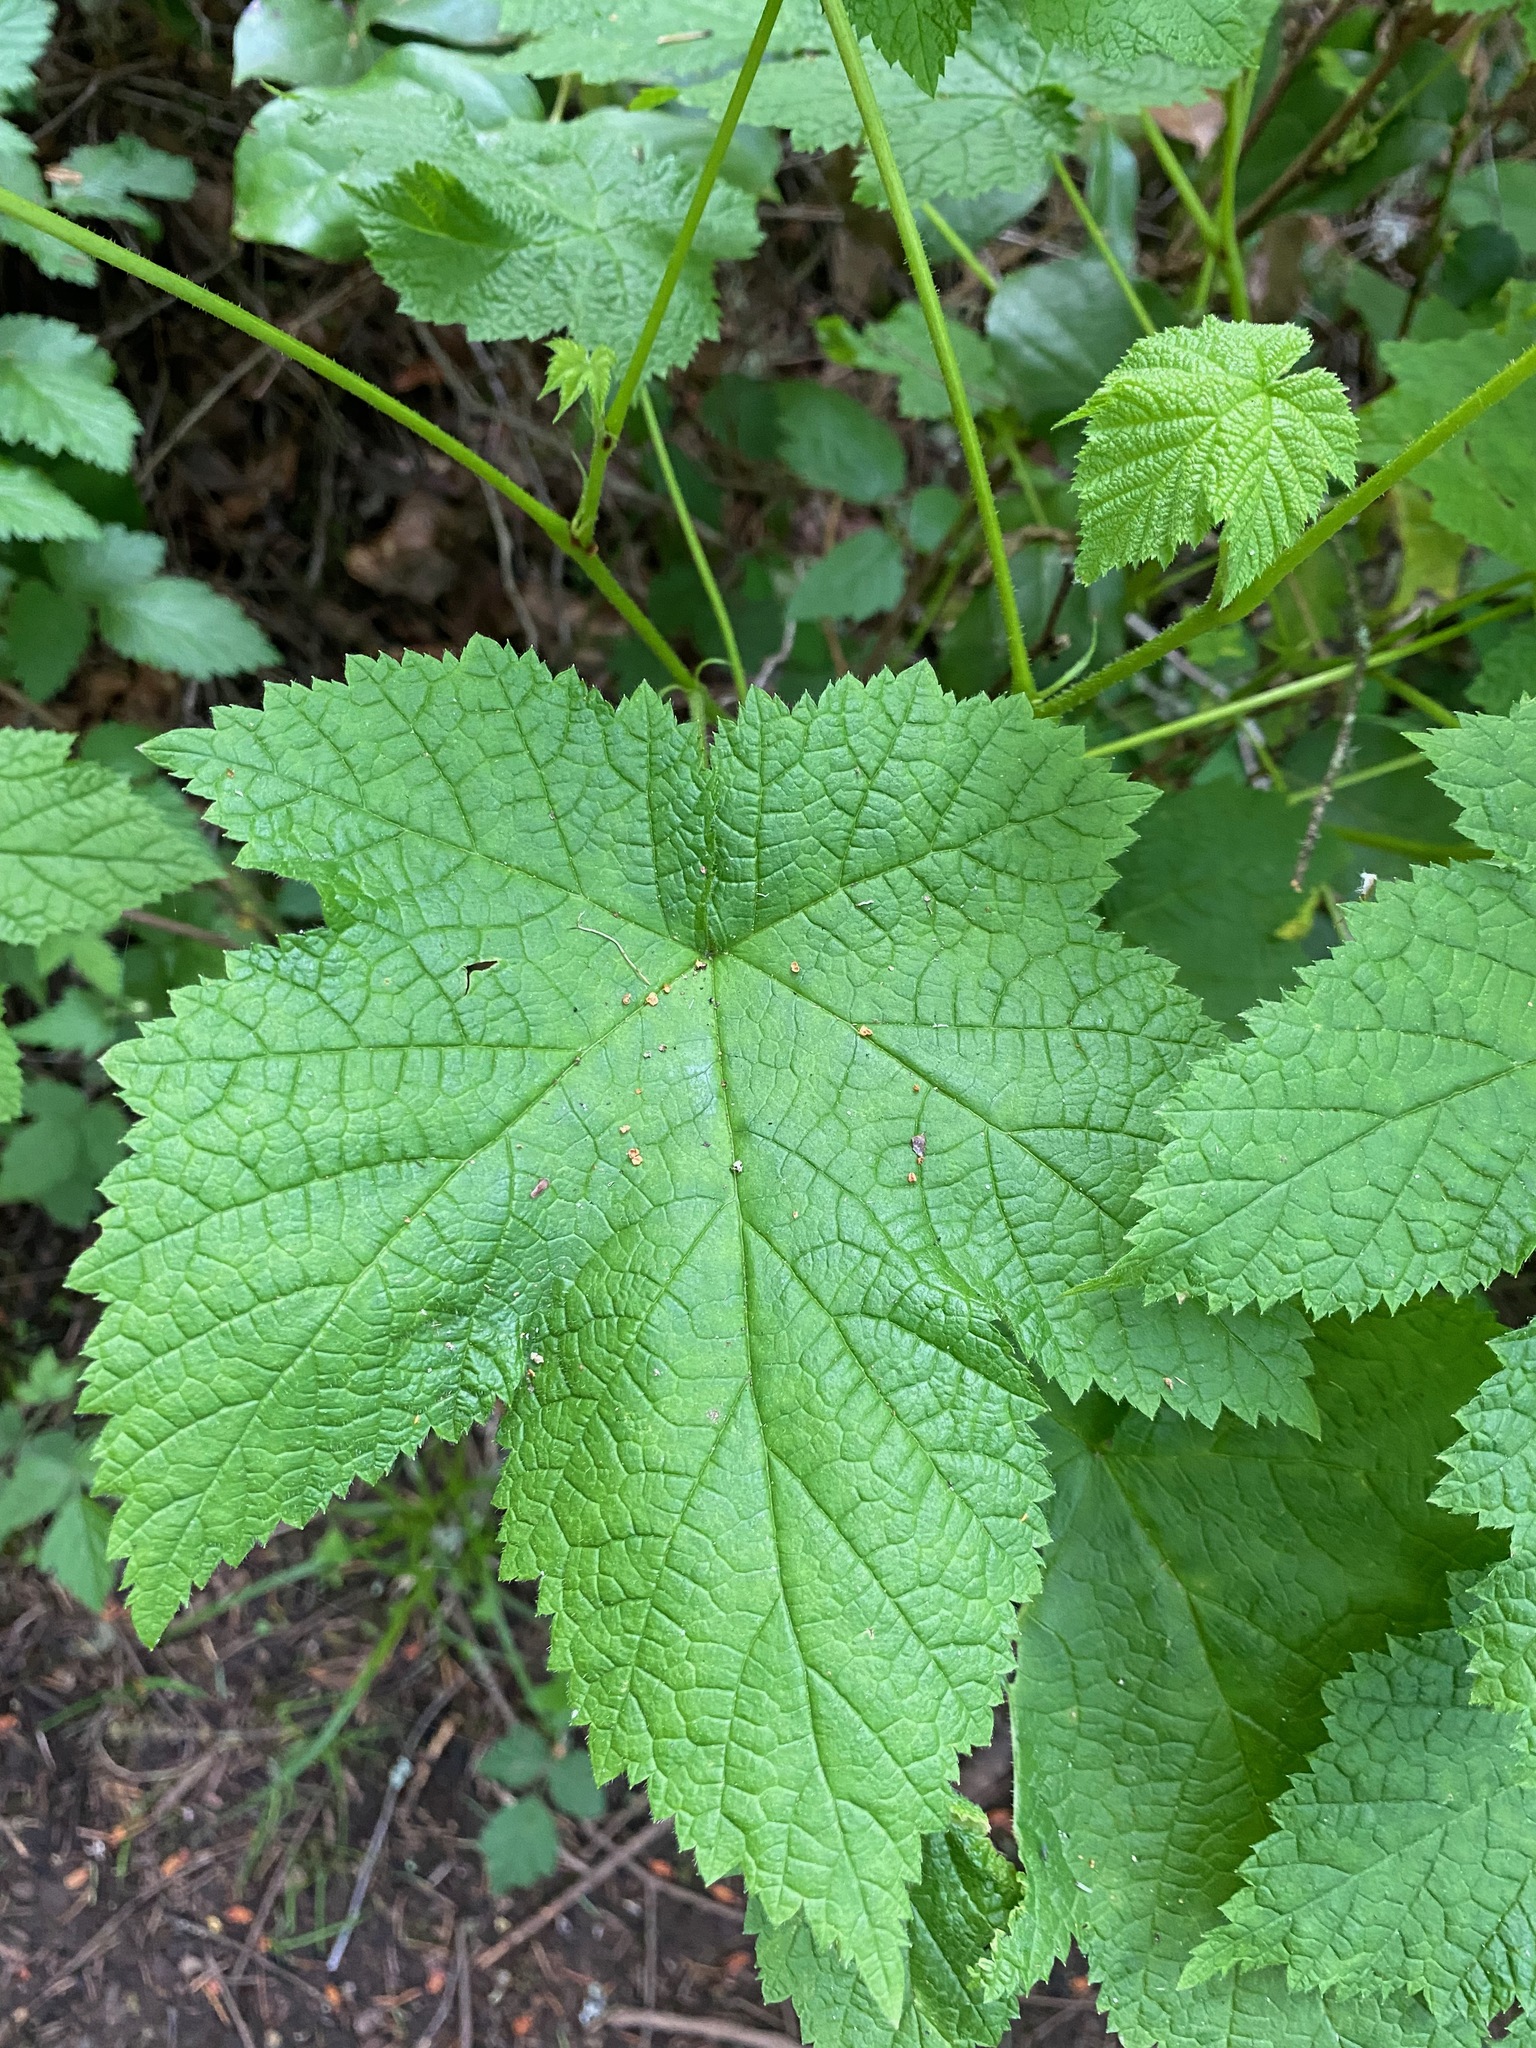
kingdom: Plantae
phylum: Tracheophyta
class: Magnoliopsida
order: Rosales
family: Rosaceae
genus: Rubus
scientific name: Rubus parviflorus
